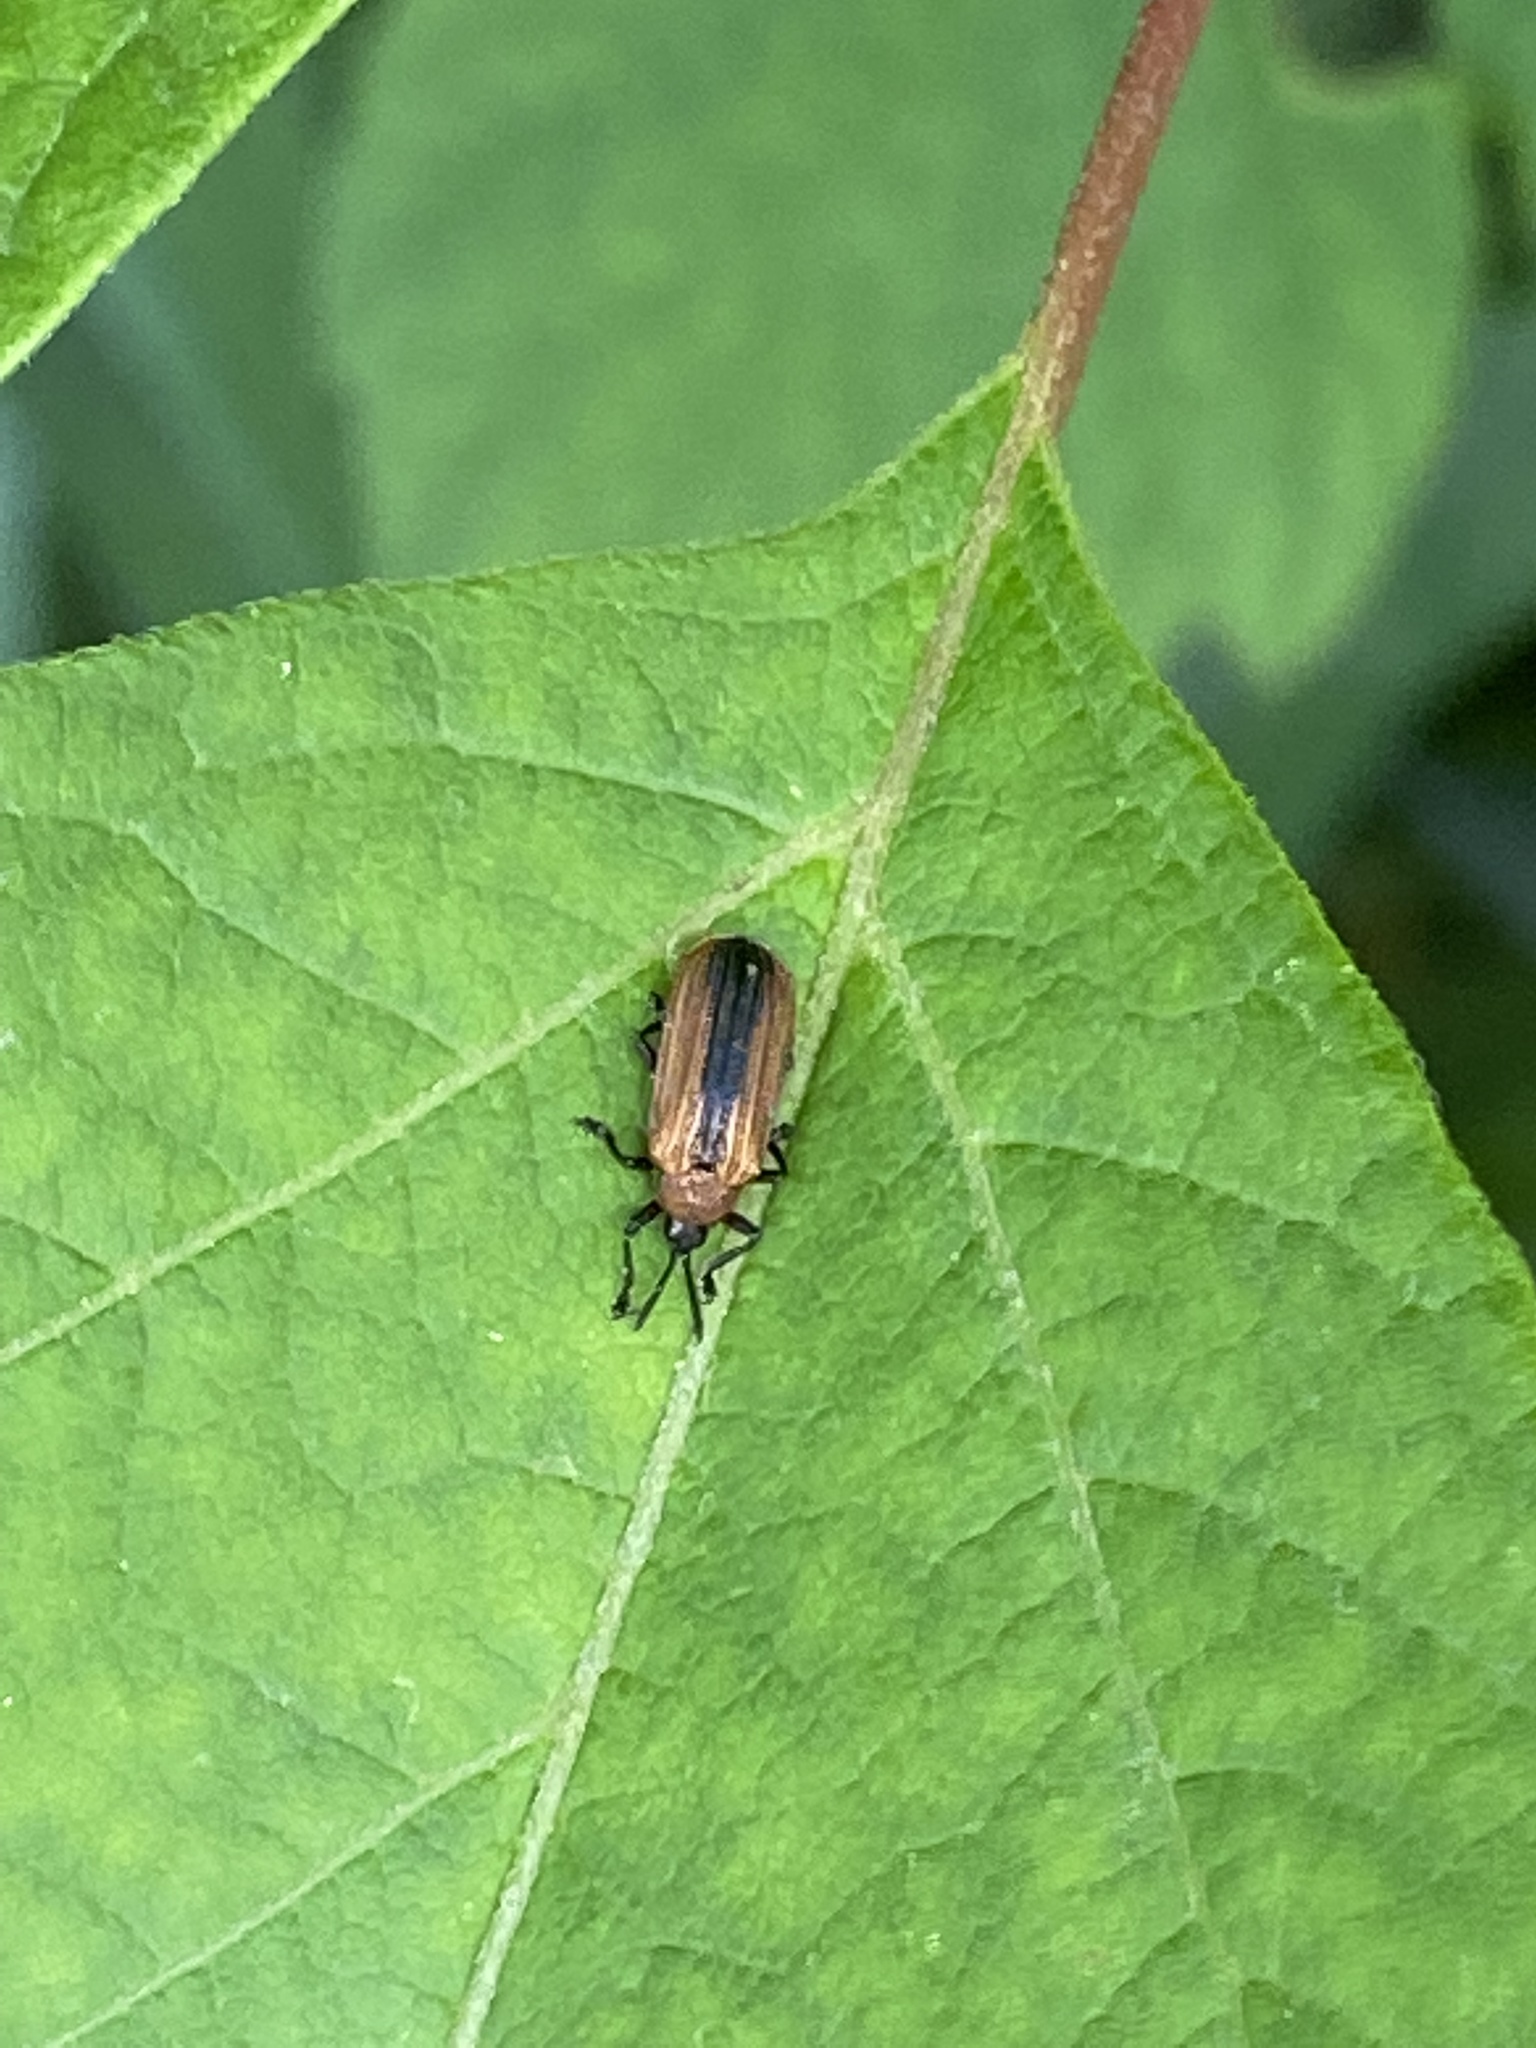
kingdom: Animalia
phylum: Arthropoda
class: Insecta
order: Coleoptera
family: Chrysomelidae
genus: Odontota
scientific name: Odontota dorsalis
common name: Locust leaf-miner beetle
